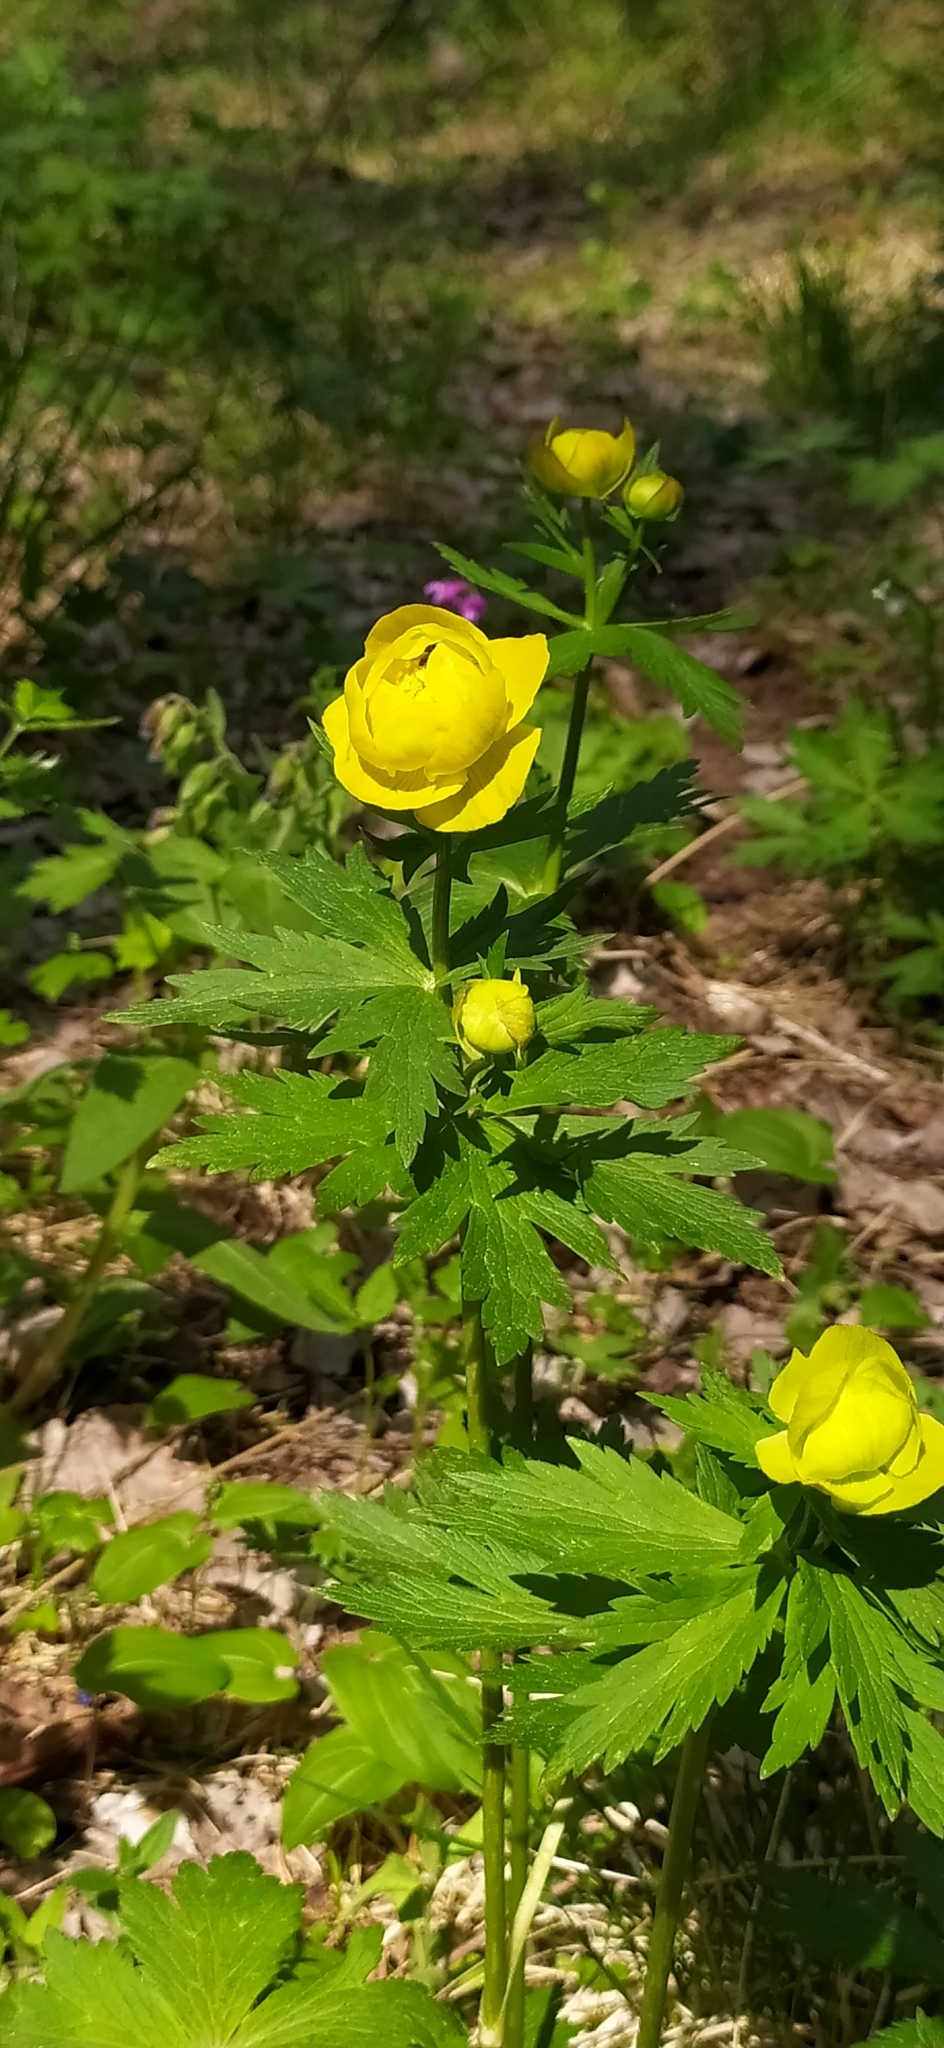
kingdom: Plantae
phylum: Tracheophyta
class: Magnoliopsida
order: Ranunculales
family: Ranunculaceae
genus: Trollius
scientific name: Trollius europaeus
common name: European globeflower
